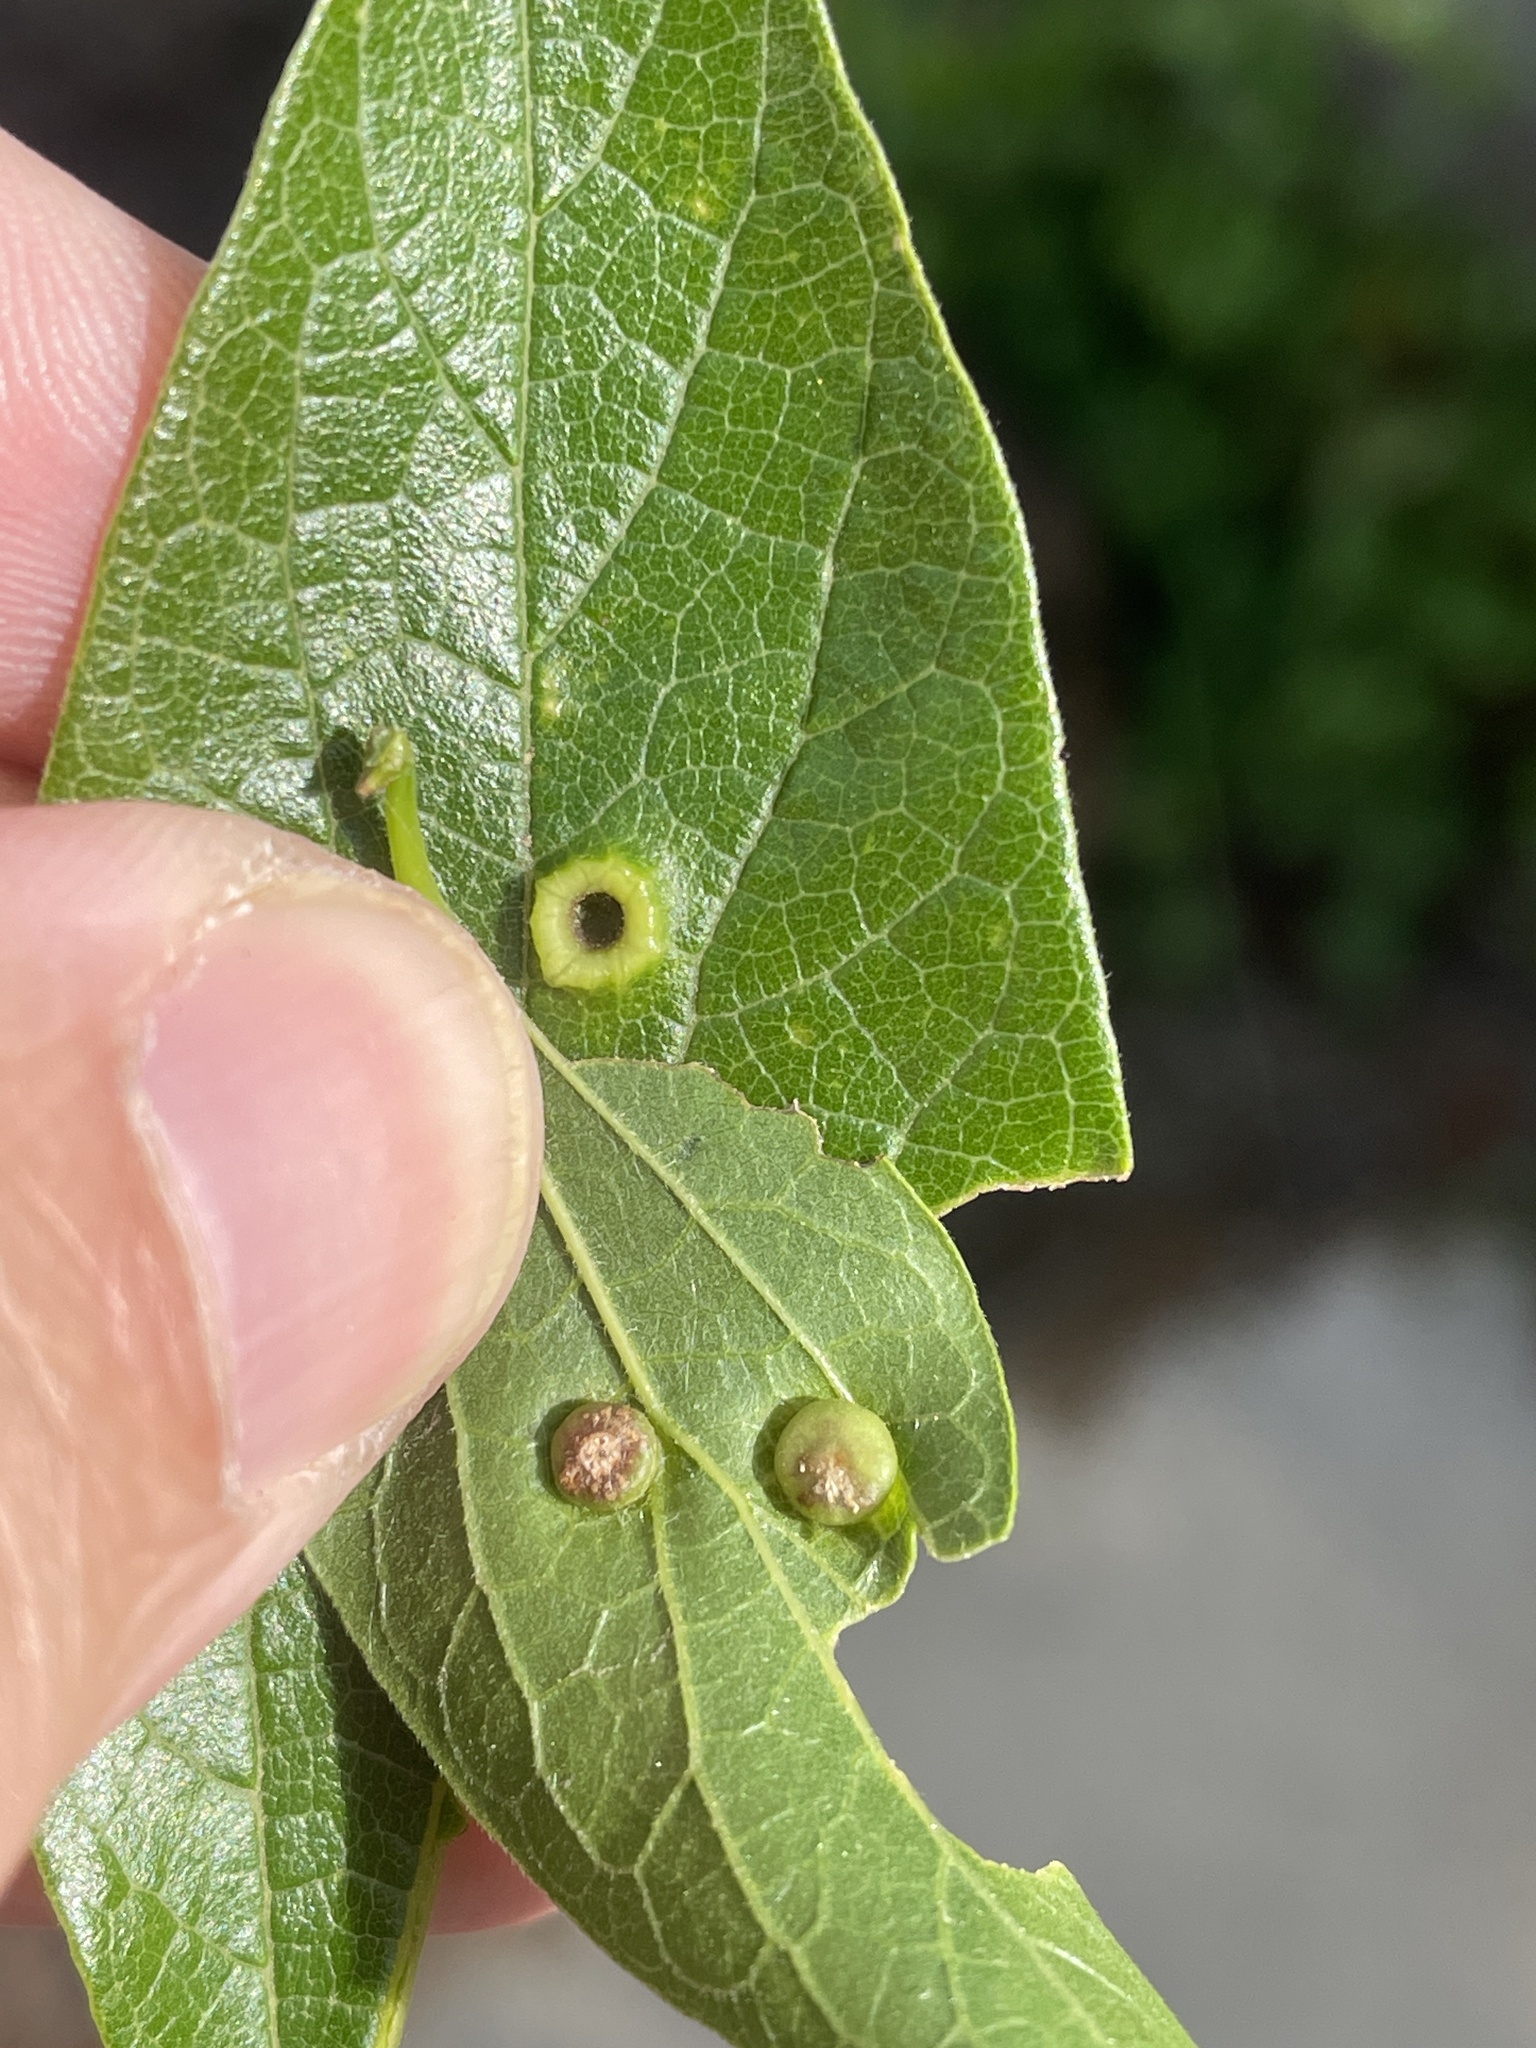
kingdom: Animalia
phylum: Arthropoda
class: Insecta
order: Hemiptera
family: Aphalaridae
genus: Pachypsylla
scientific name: Pachypsylla celtidismamma
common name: Hackberry nipplegall psyllid
